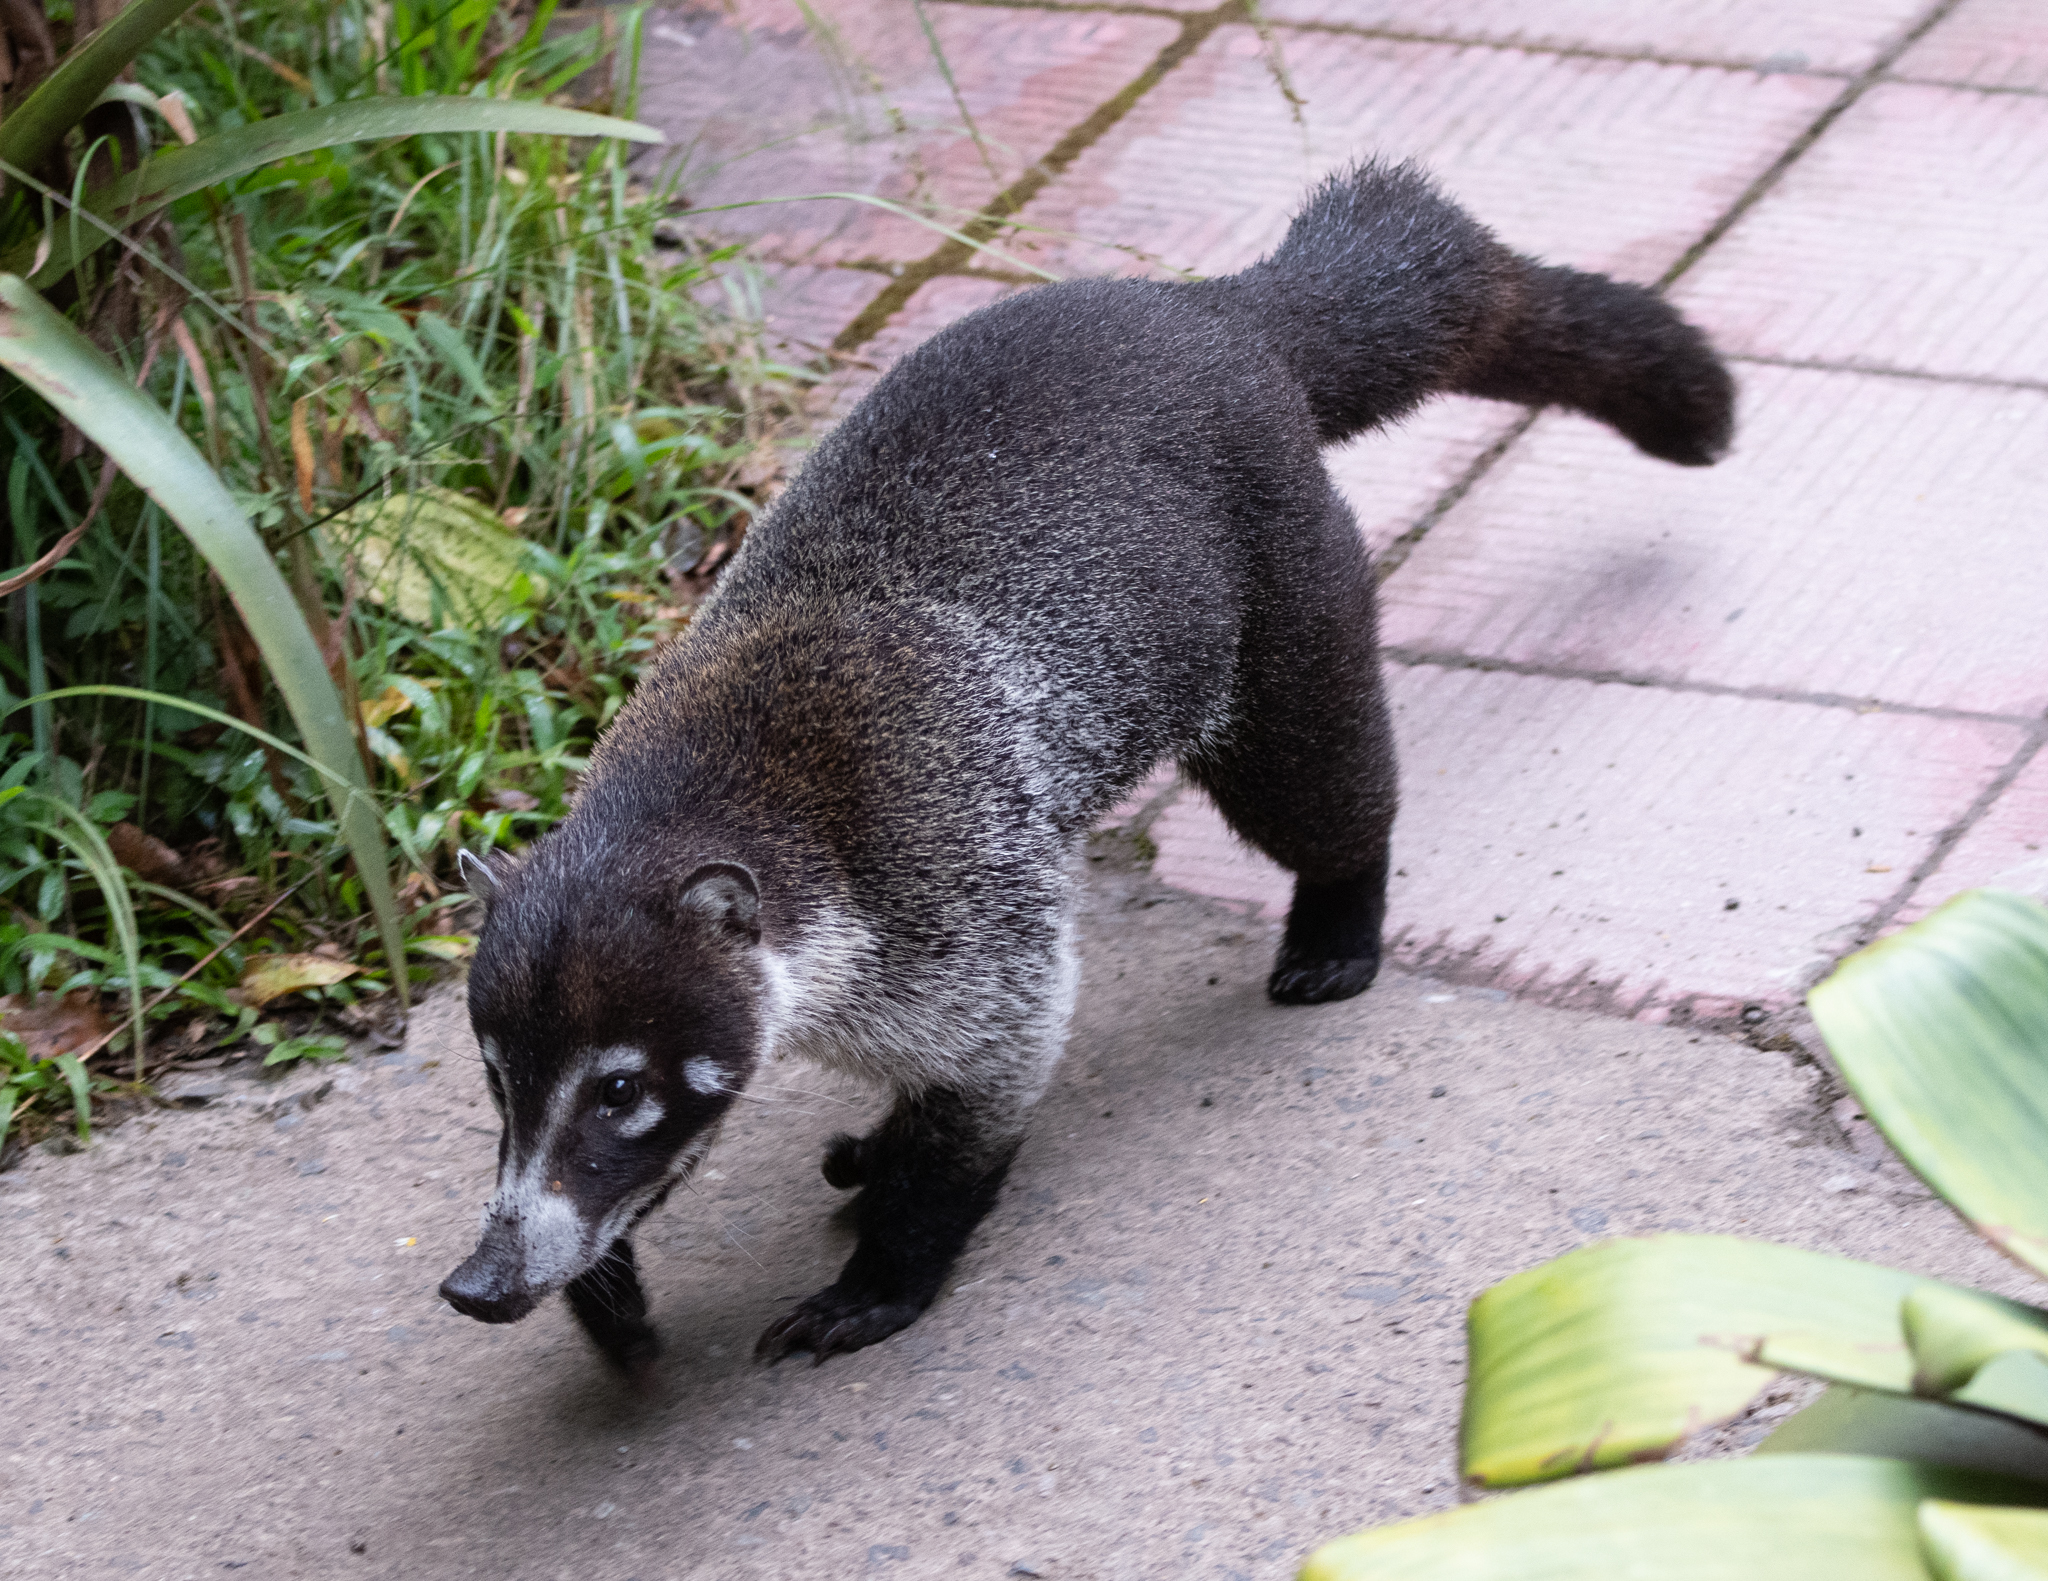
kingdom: Animalia
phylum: Chordata
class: Mammalia
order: Carnivora
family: Procyonidae
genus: Nasua
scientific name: Nasua narica
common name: White-nosed coati
